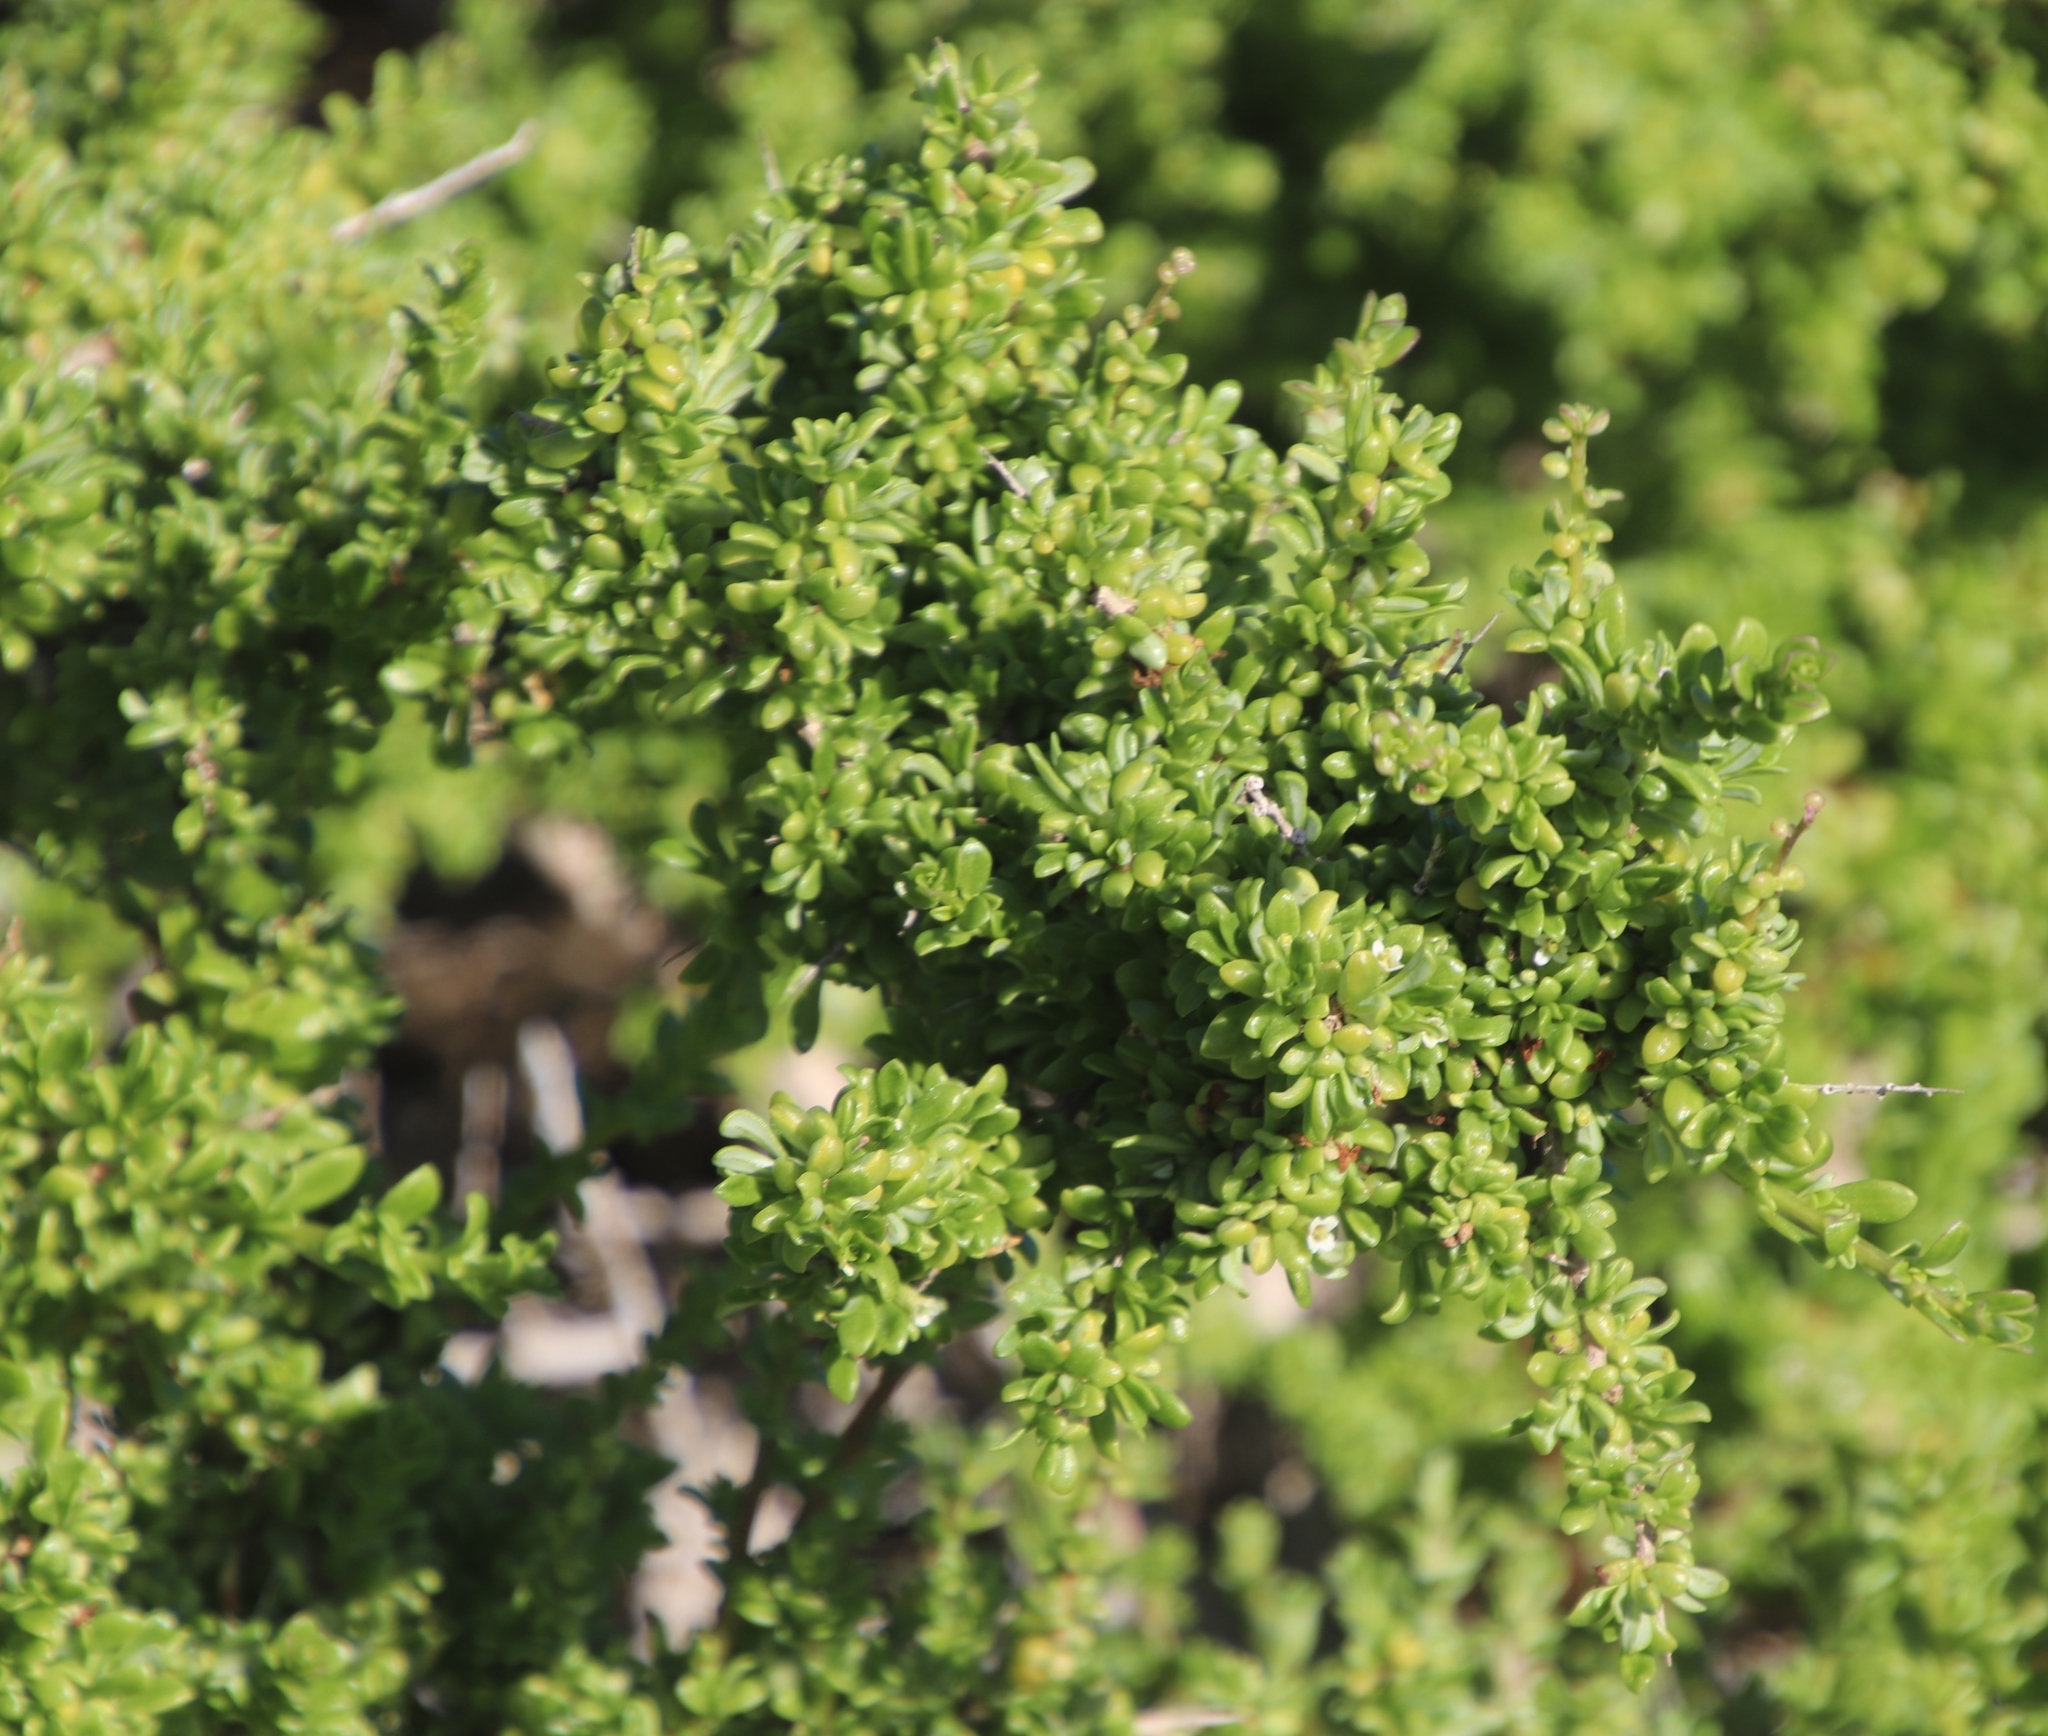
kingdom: Plantae
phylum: Tracheophyta
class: Magnoliopsida
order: Solanales
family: Solanaceae
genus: Lycium
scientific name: Lycium tetrandrum
